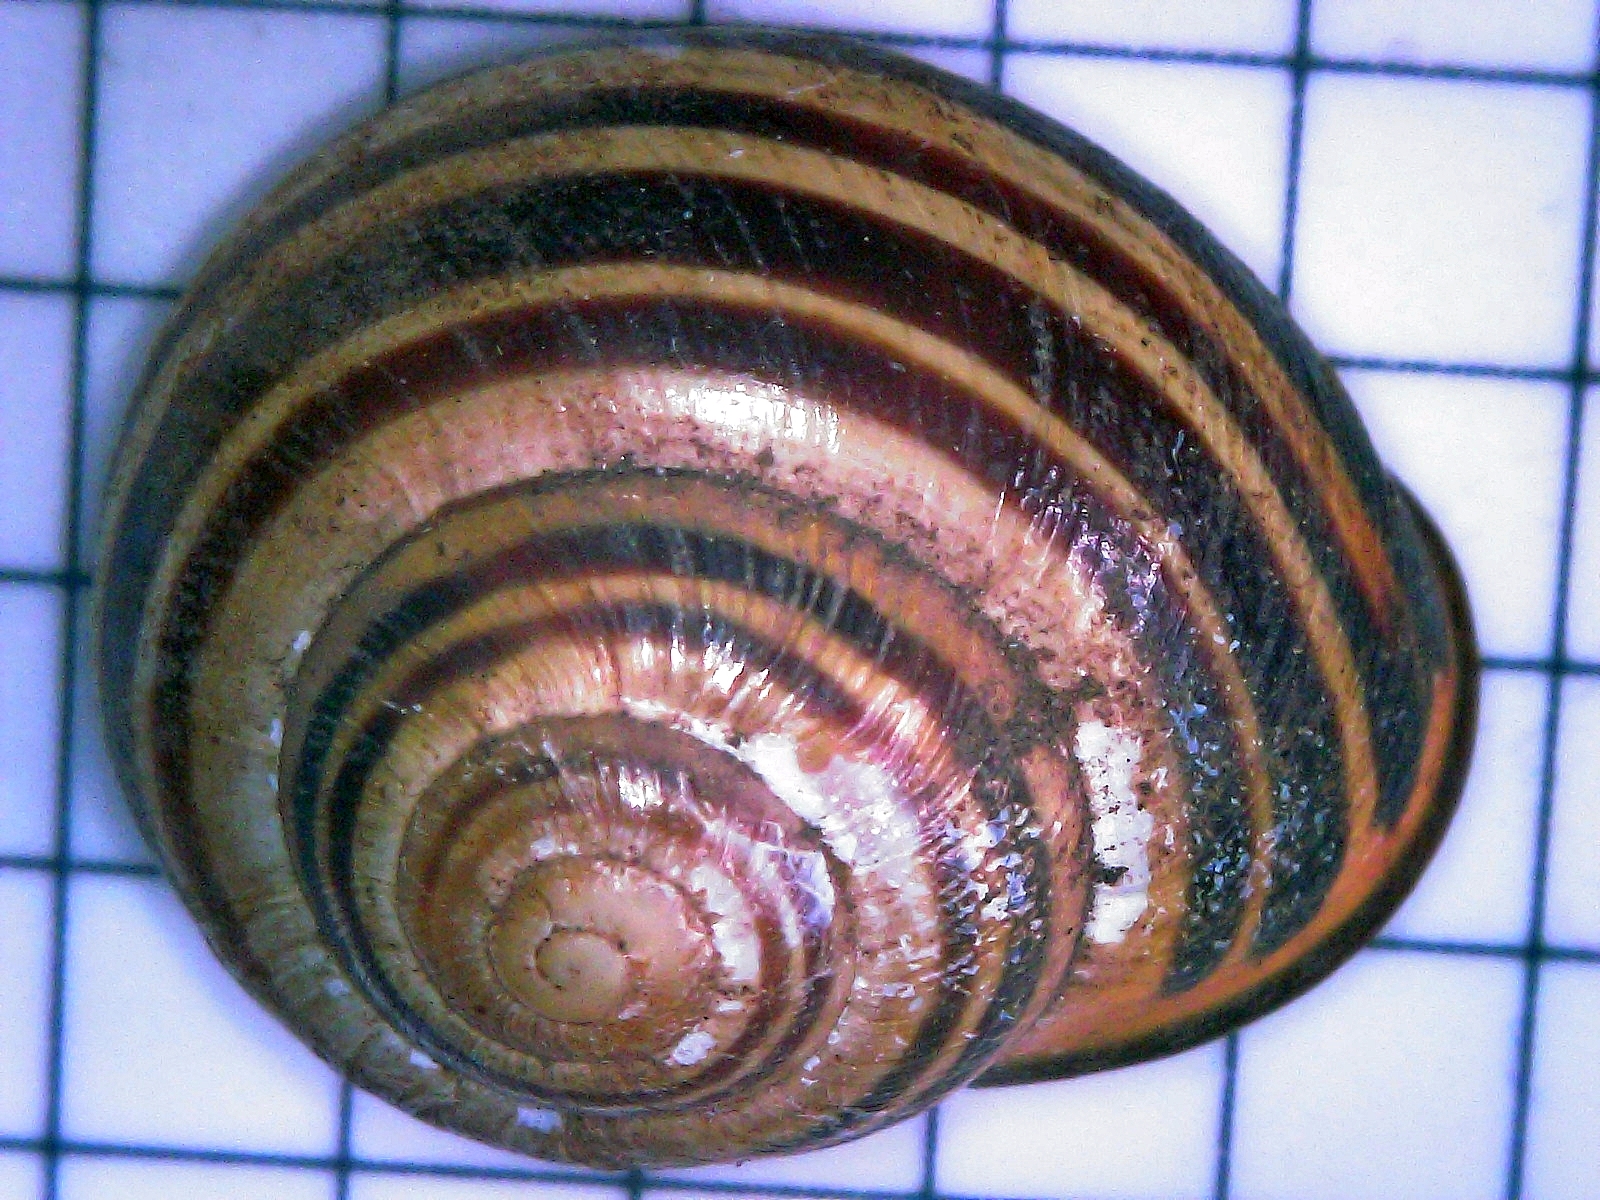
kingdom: Animalia
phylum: Mollusca
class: Gastropoda
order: Stylommatophora
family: Helicidae
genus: Cepaea
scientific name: Cepaea nemoralis
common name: Grovesnail
